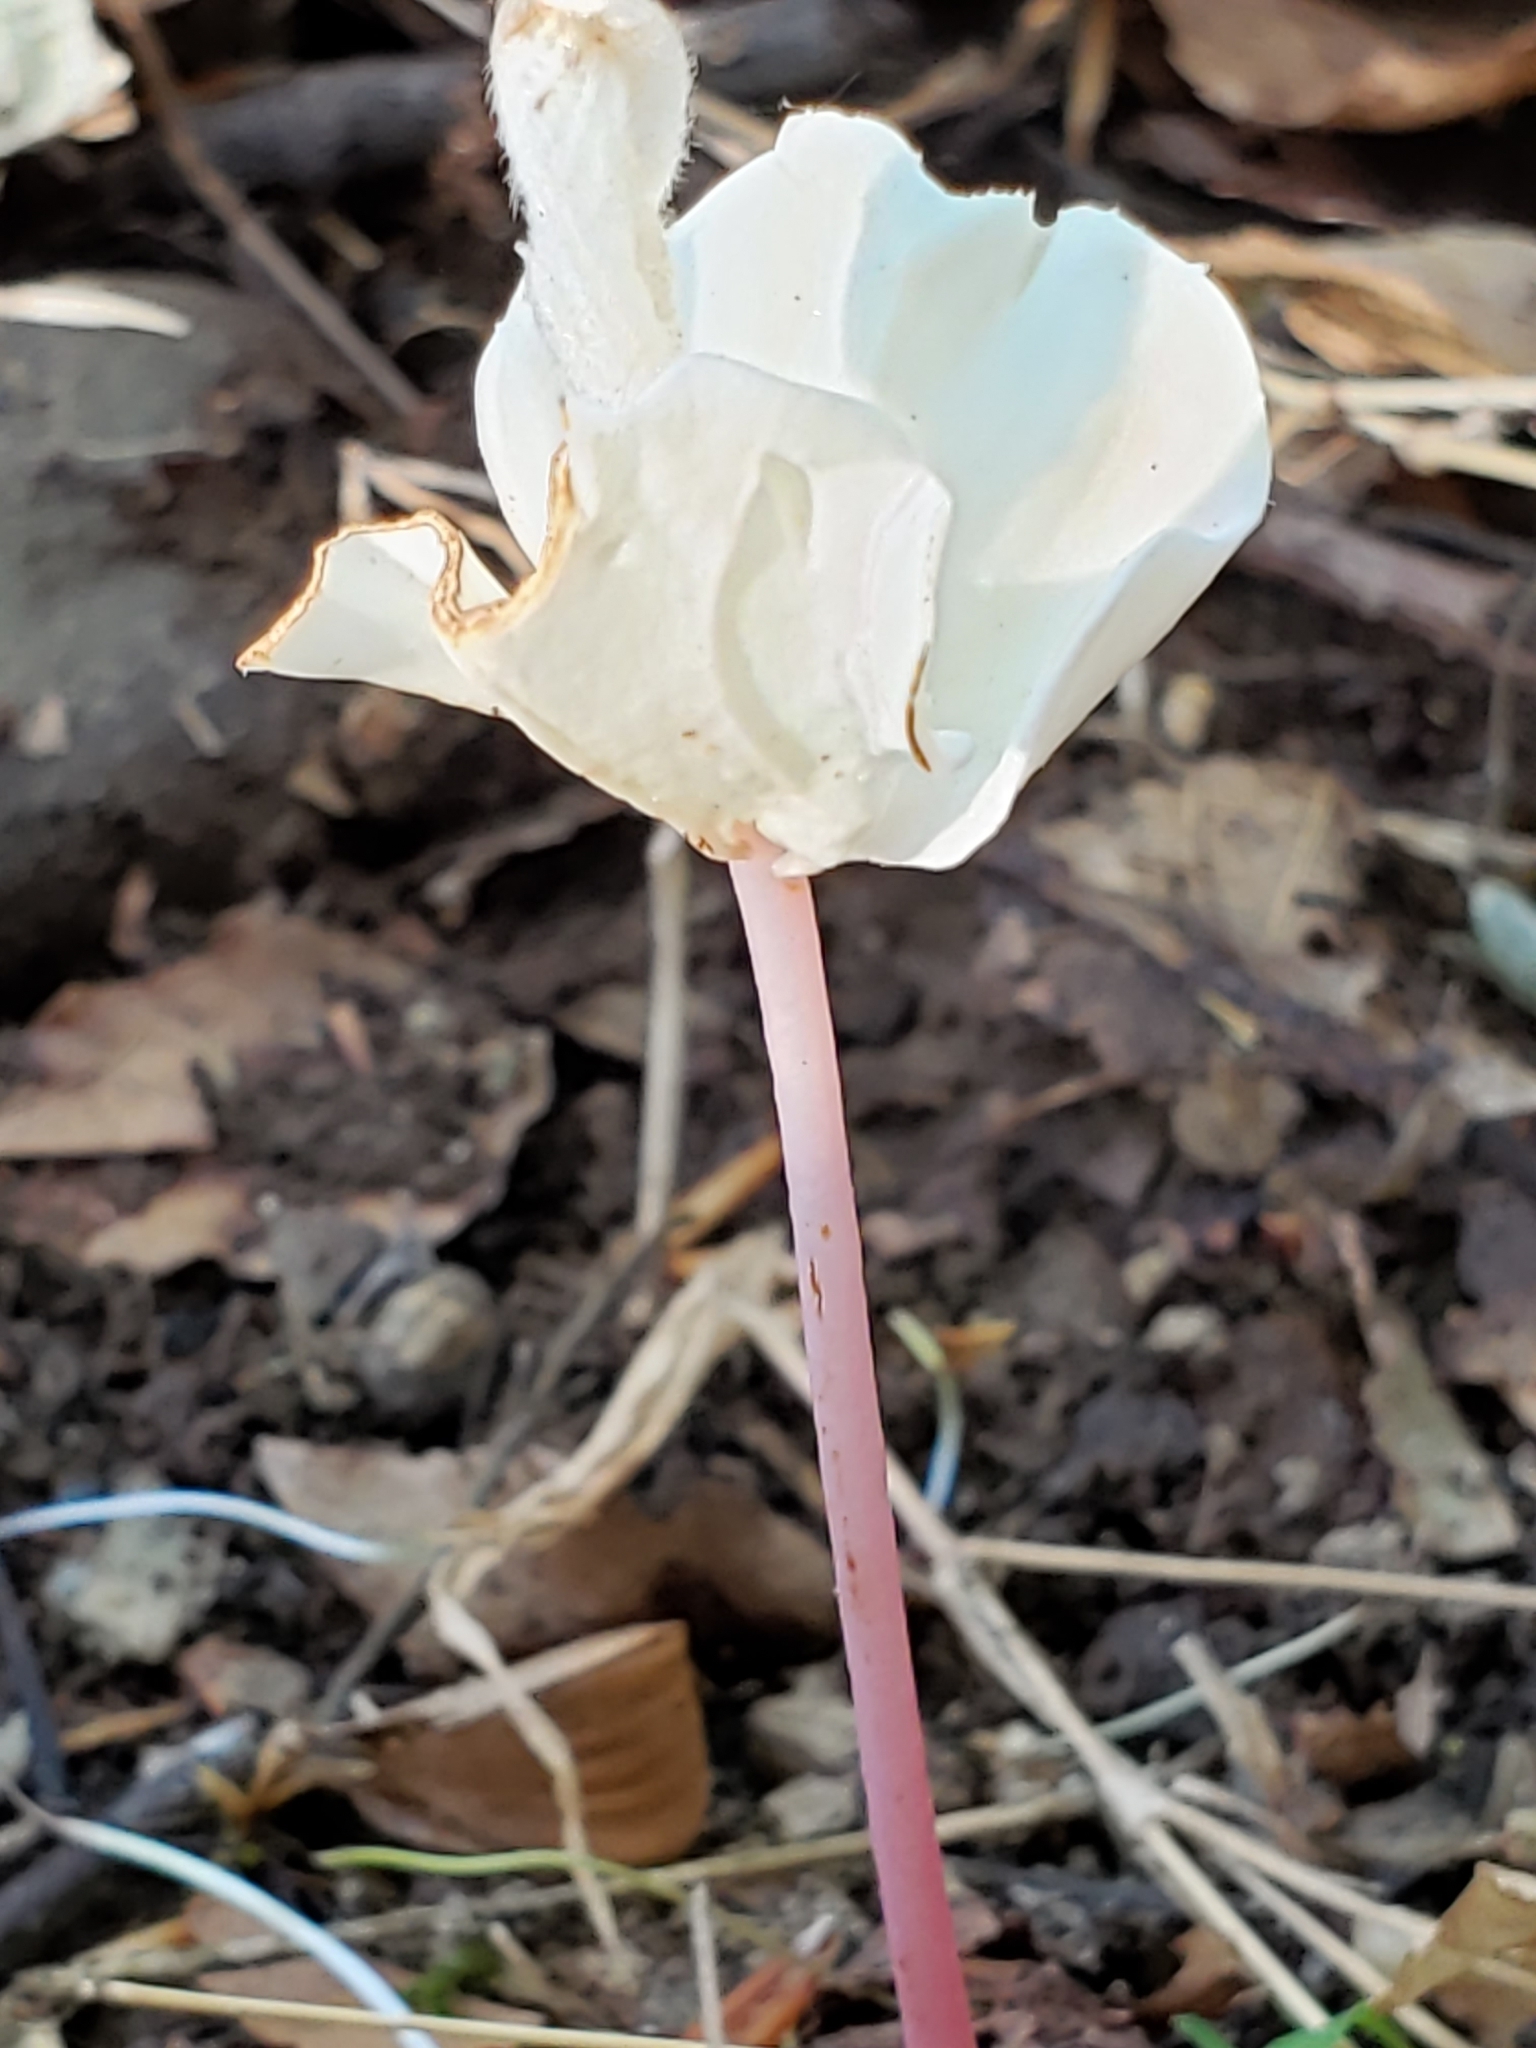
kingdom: Plantae
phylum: Tracheophyta
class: Magnoliopsida
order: Fagales
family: Fagaceae
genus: Fagus
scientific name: Fagus grandifolia
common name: American beech
